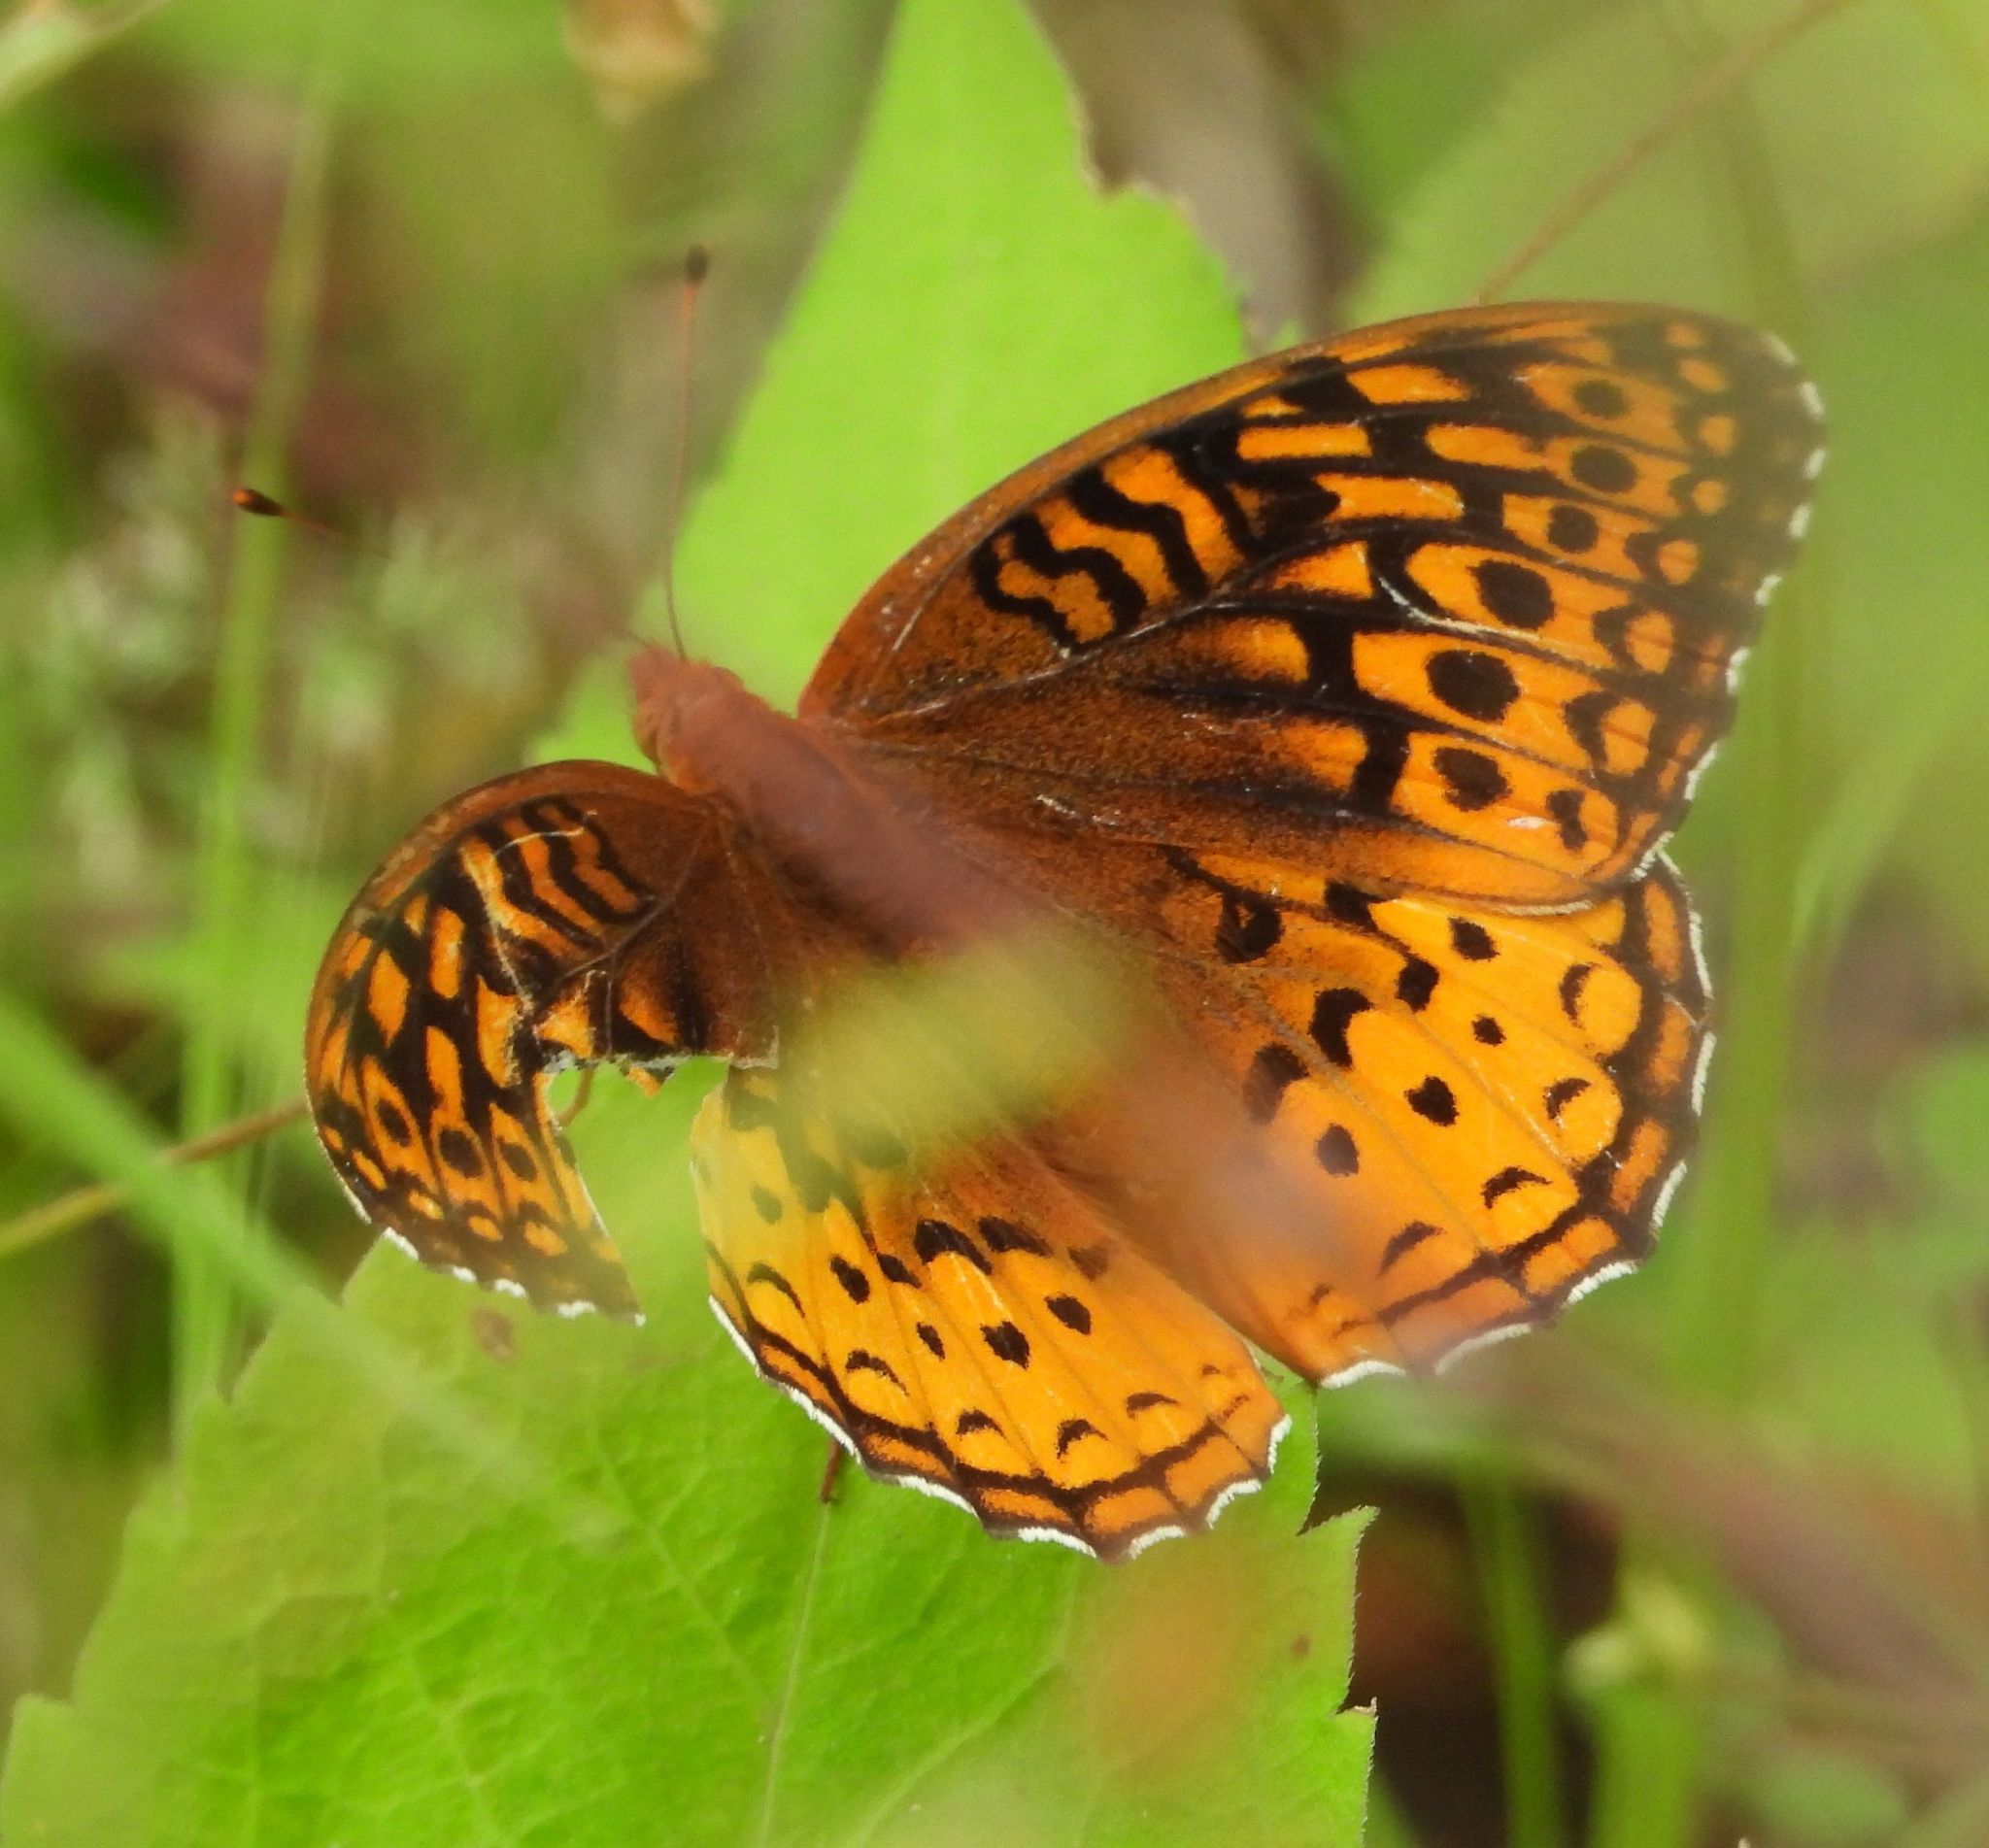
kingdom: Animalia
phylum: Arthropoda
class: Insecta
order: Lepidoptera
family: Nymphalidae
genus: Speyeria
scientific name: Speyeria cybele
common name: Great spangled fritillary
